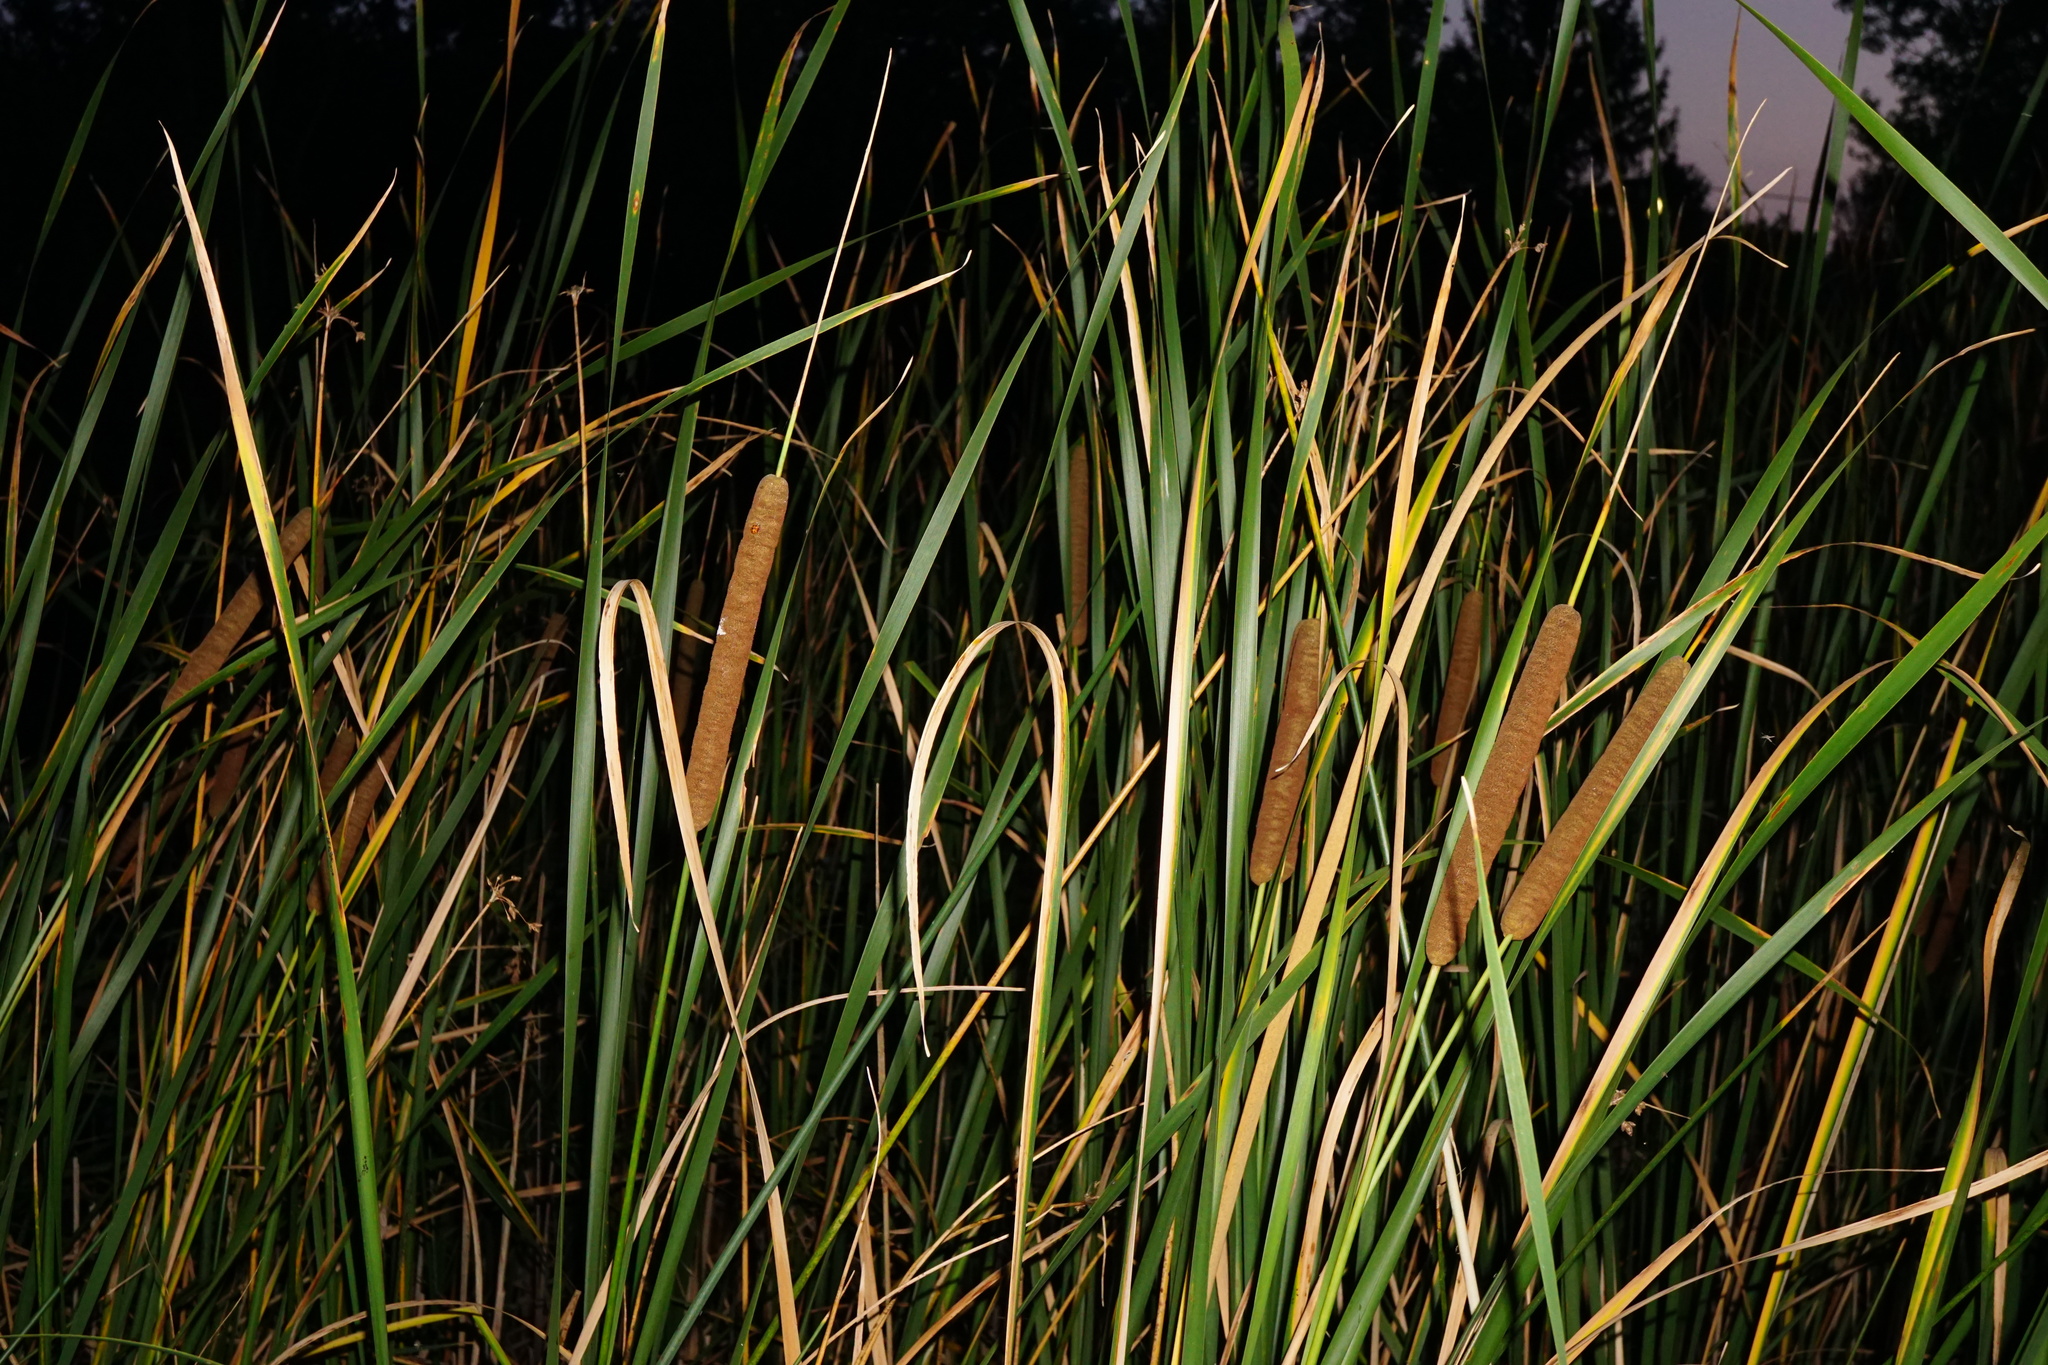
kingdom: Plantae
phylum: Tracheophyta
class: Liliopsida
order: Poales
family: Typhaceae
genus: Typha
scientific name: Typha angustifolia
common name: Lesser bulrush
